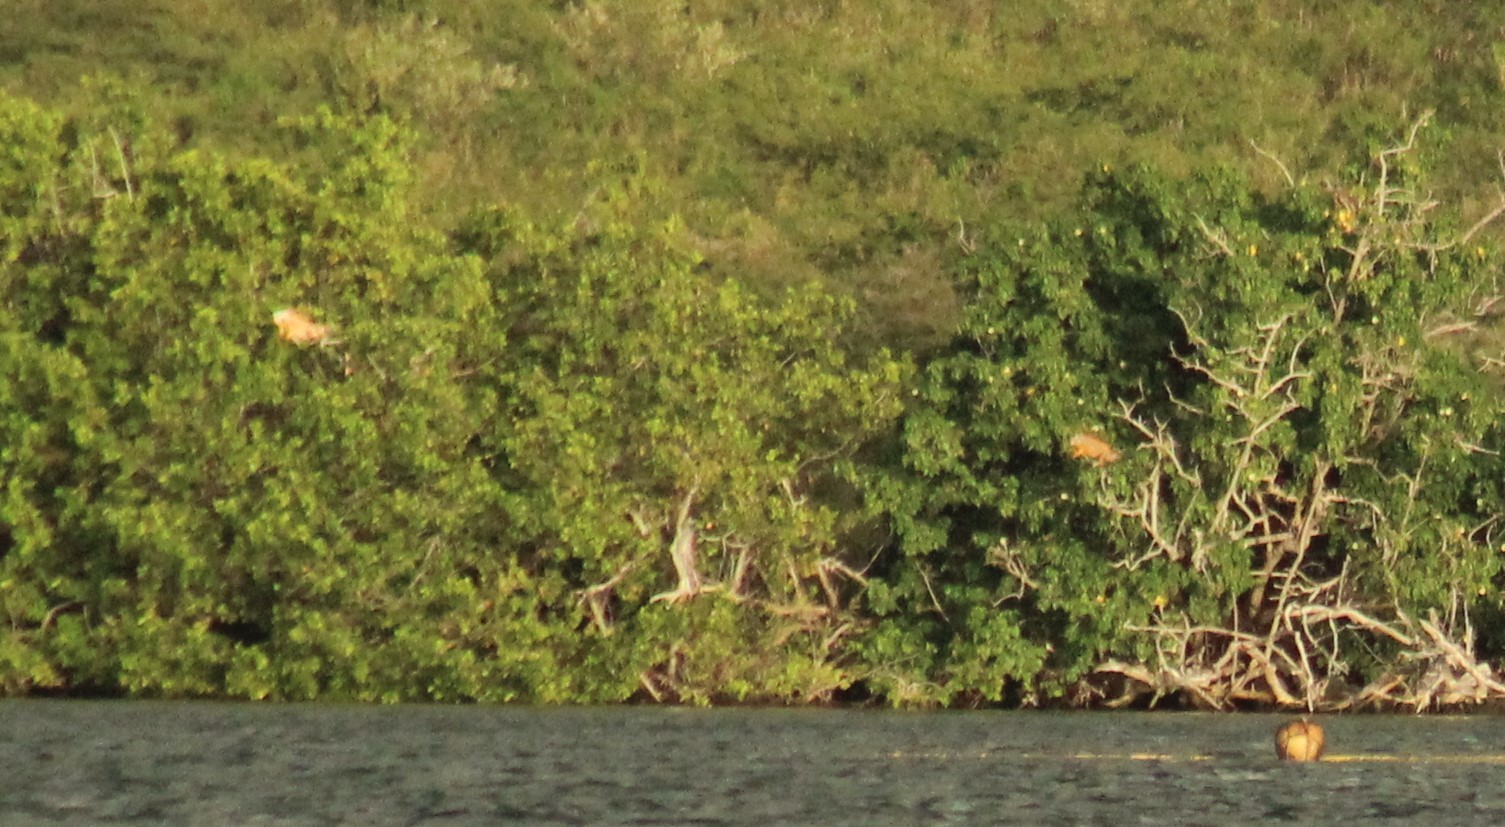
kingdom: Animalia
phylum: Chordata
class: Squamata
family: Iguanidae
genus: Iguana
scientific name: Iguana iguana
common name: Green iguana
